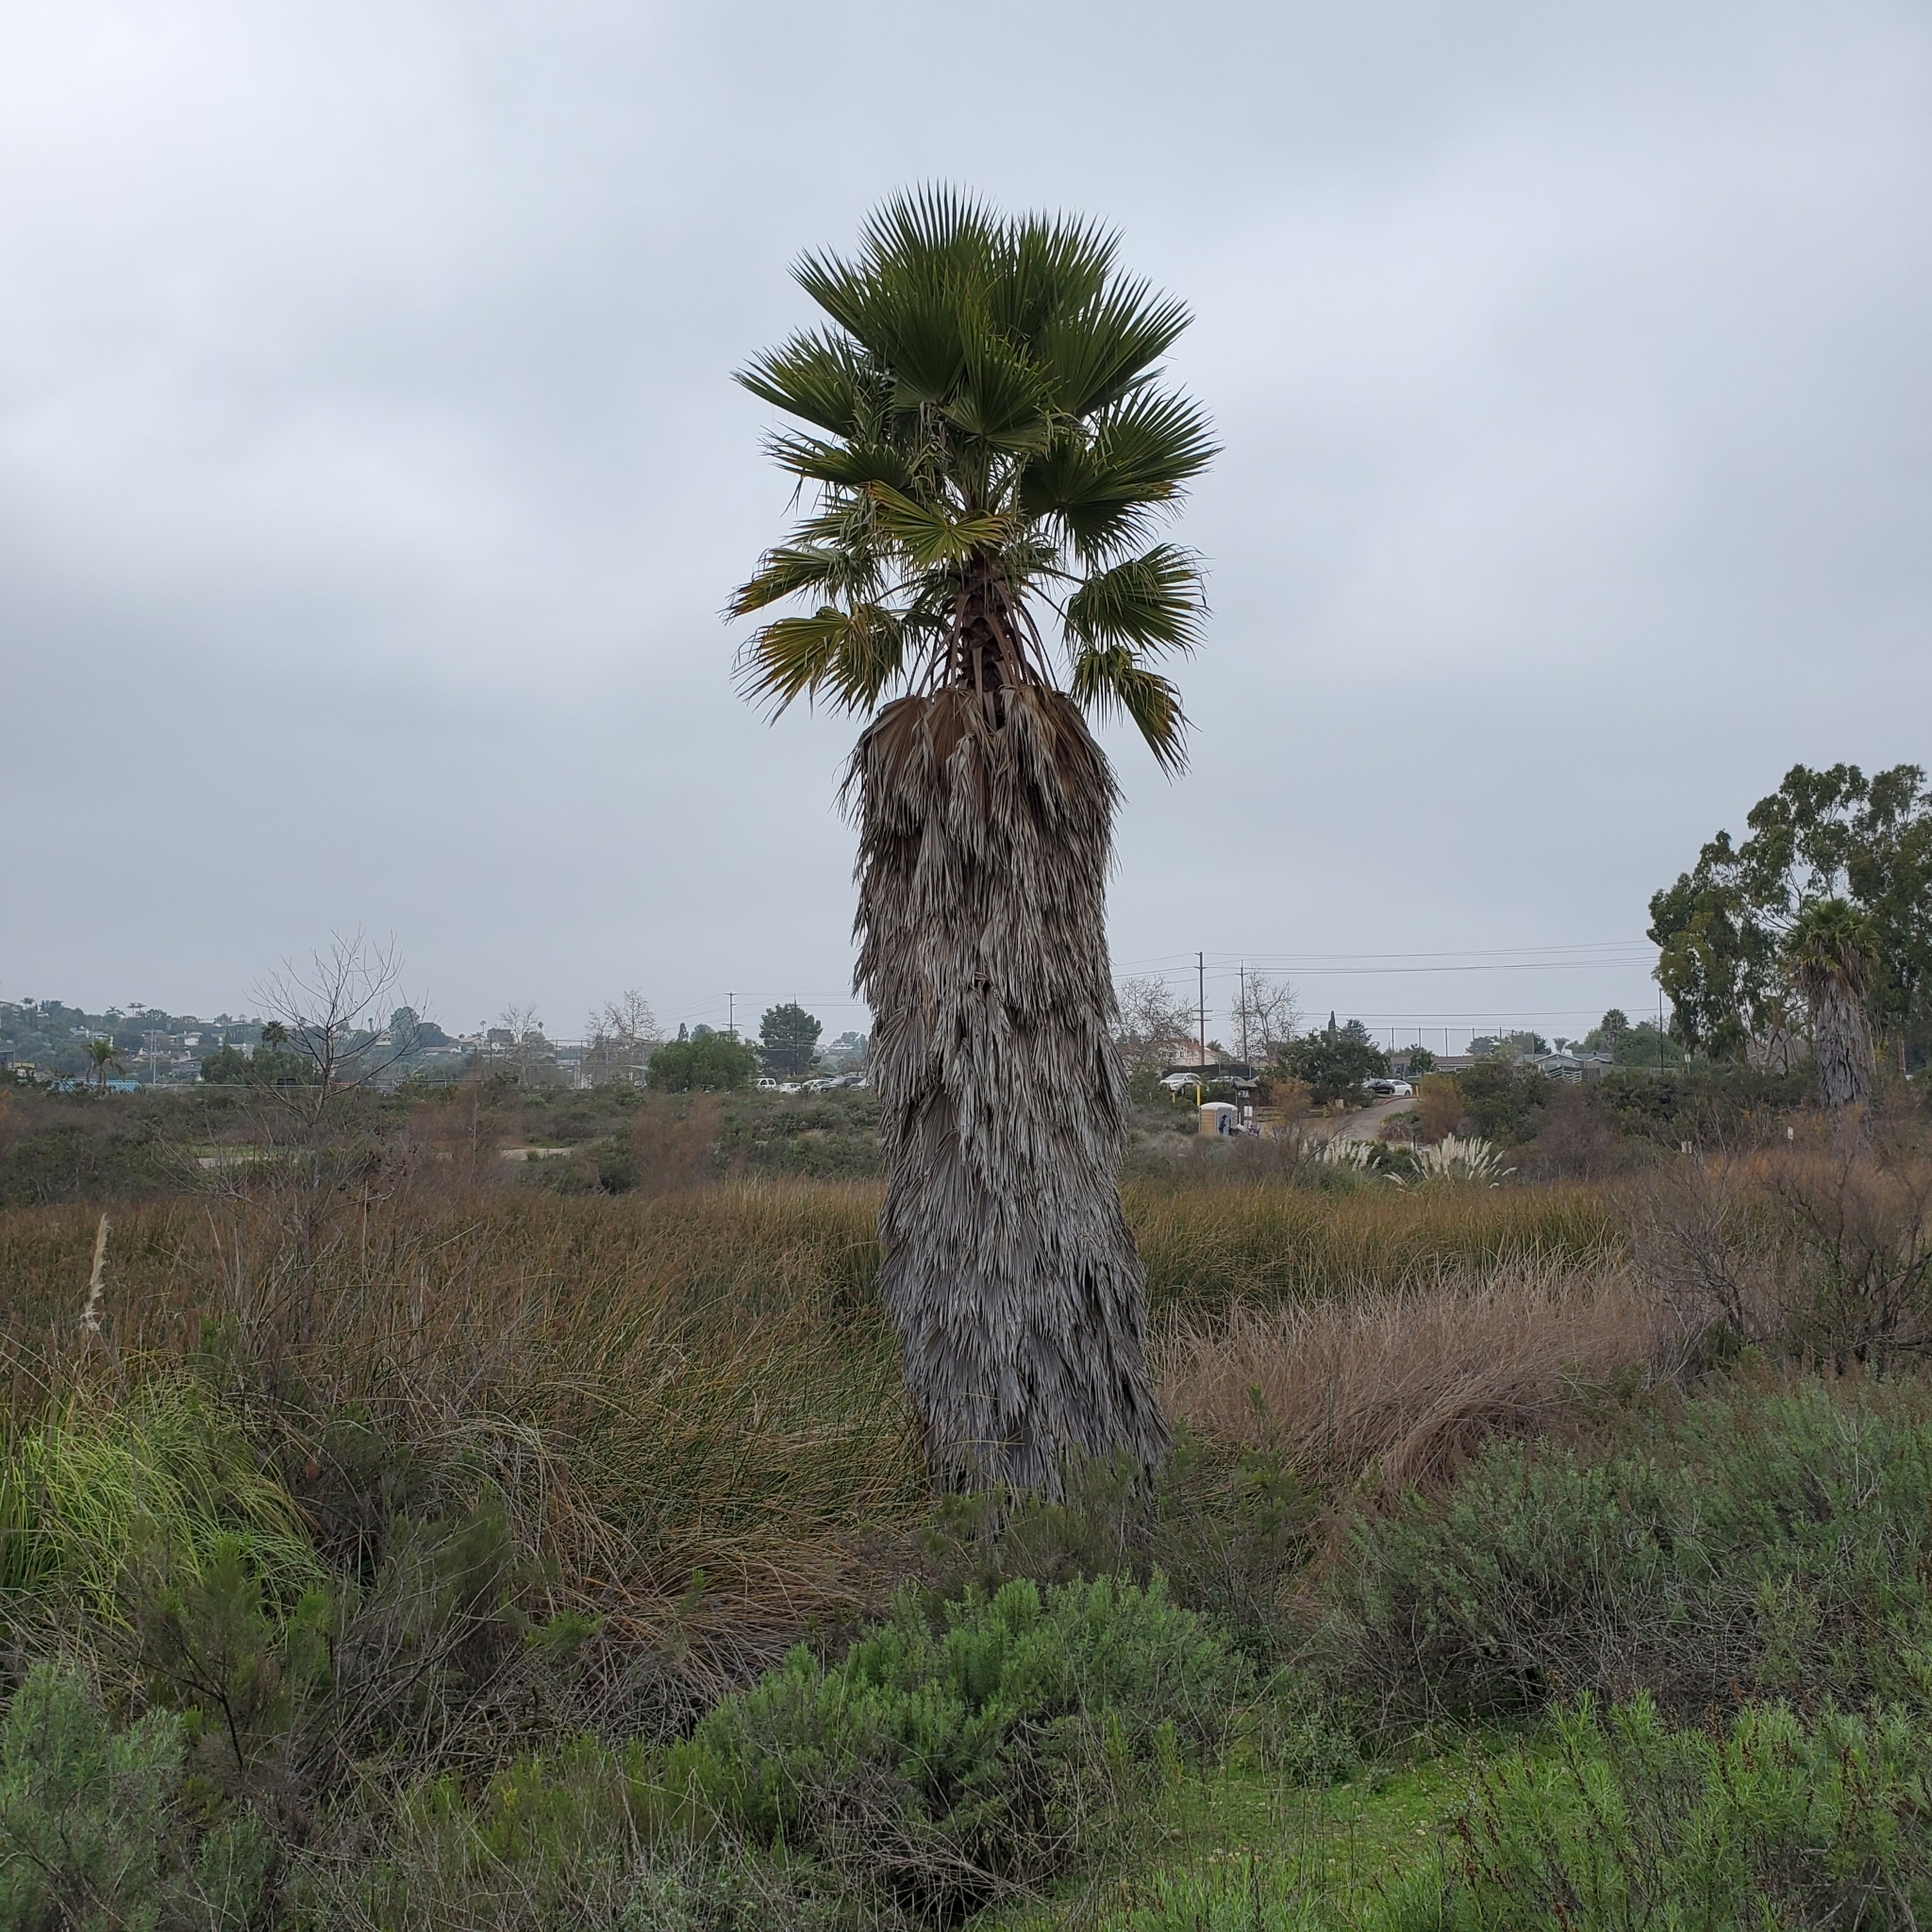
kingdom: Plantae
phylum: Tracheophyta
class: Liliopsida
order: Arecales
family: Arecaceae
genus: Washingtonia
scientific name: Washingtonia robusta
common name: Mexican fan palm
